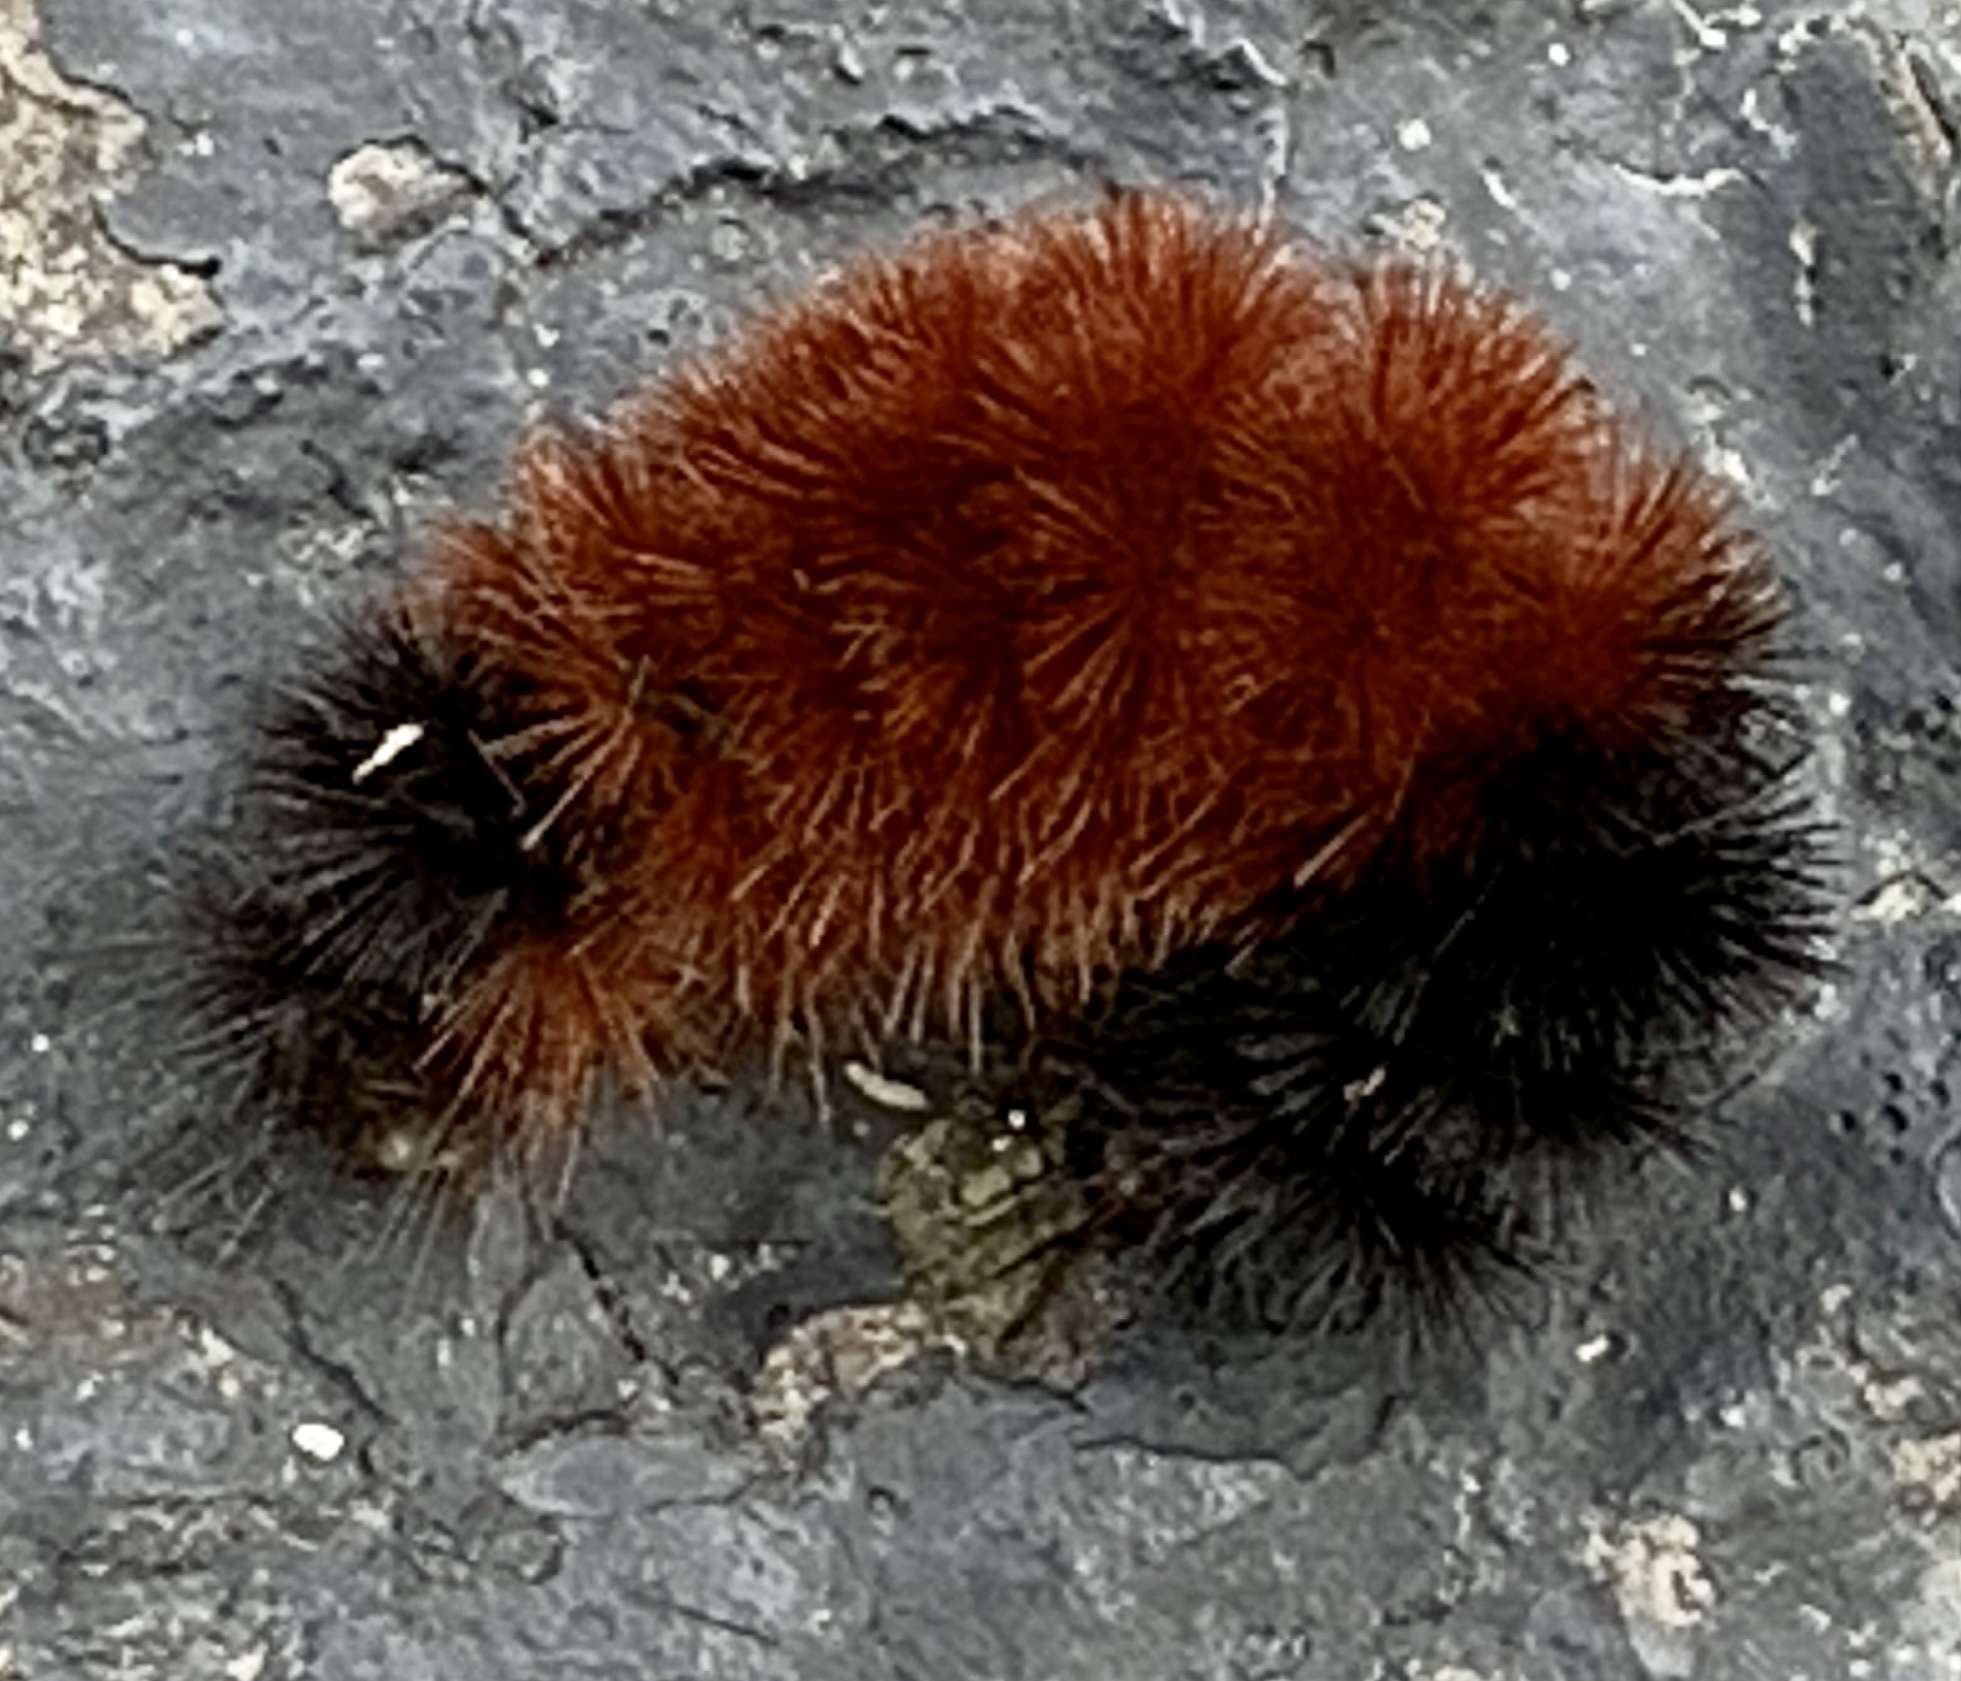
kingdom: Animalia
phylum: Arthropoda
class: Insecta
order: Lepidoptera
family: Erebidae
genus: Pyrrharctia
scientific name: Pyrrharctia isabella
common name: Isabella tiger moth
